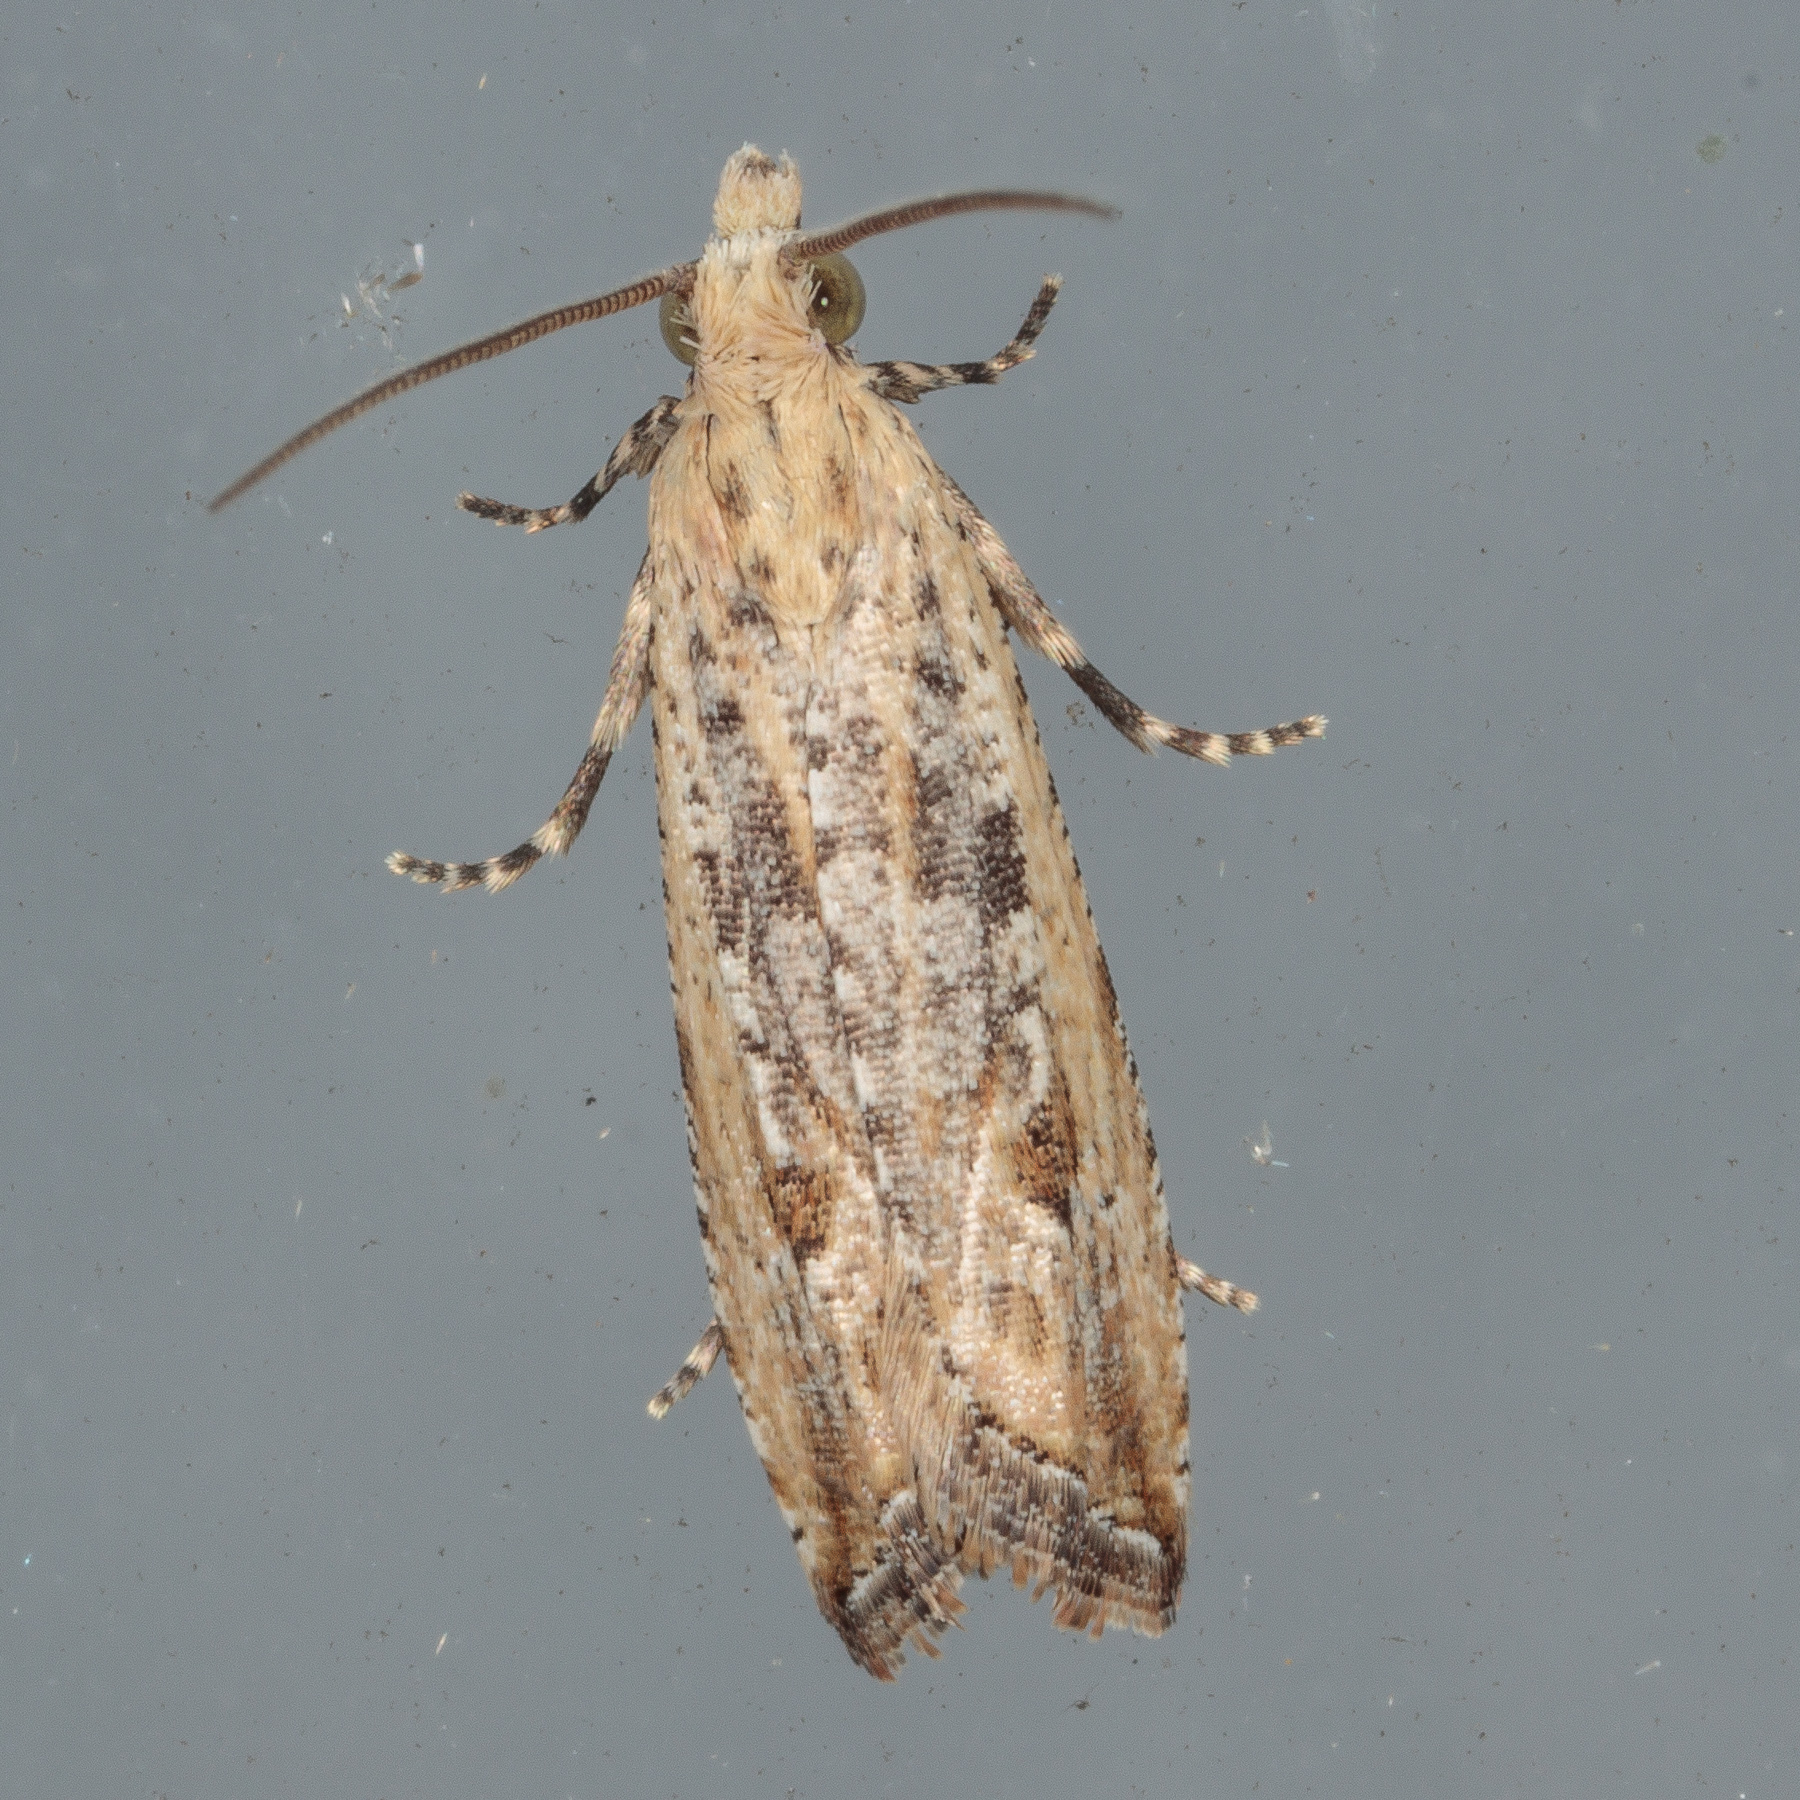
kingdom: Animalia
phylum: Arthropoda
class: Insecta
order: Lepidoptera
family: Tortricidae
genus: Bactra
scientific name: Bactra verutana
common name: Javelin moth
